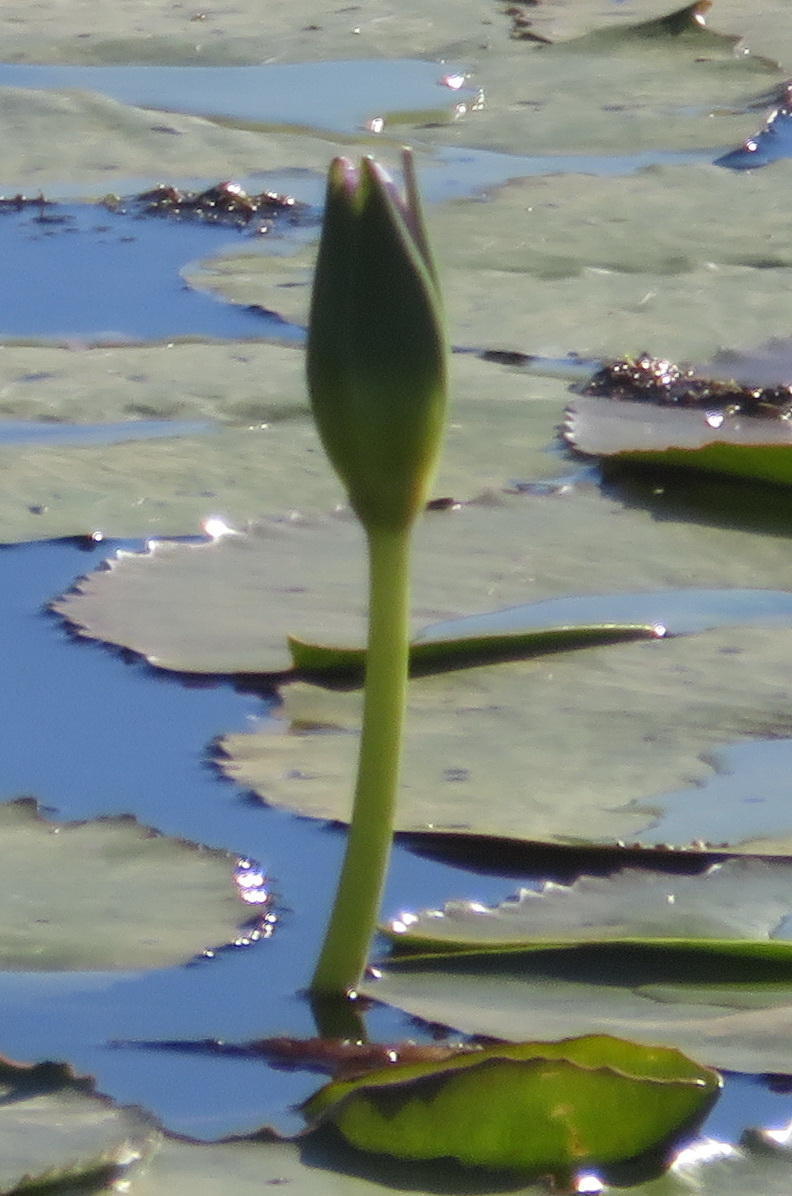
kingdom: Plantae
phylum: Tracheophyta
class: Magnoliopsida
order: Nymphaeales
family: Nymphaeaceae
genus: Nymphaea
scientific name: Nymphaea nouchali
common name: Blue lotus
